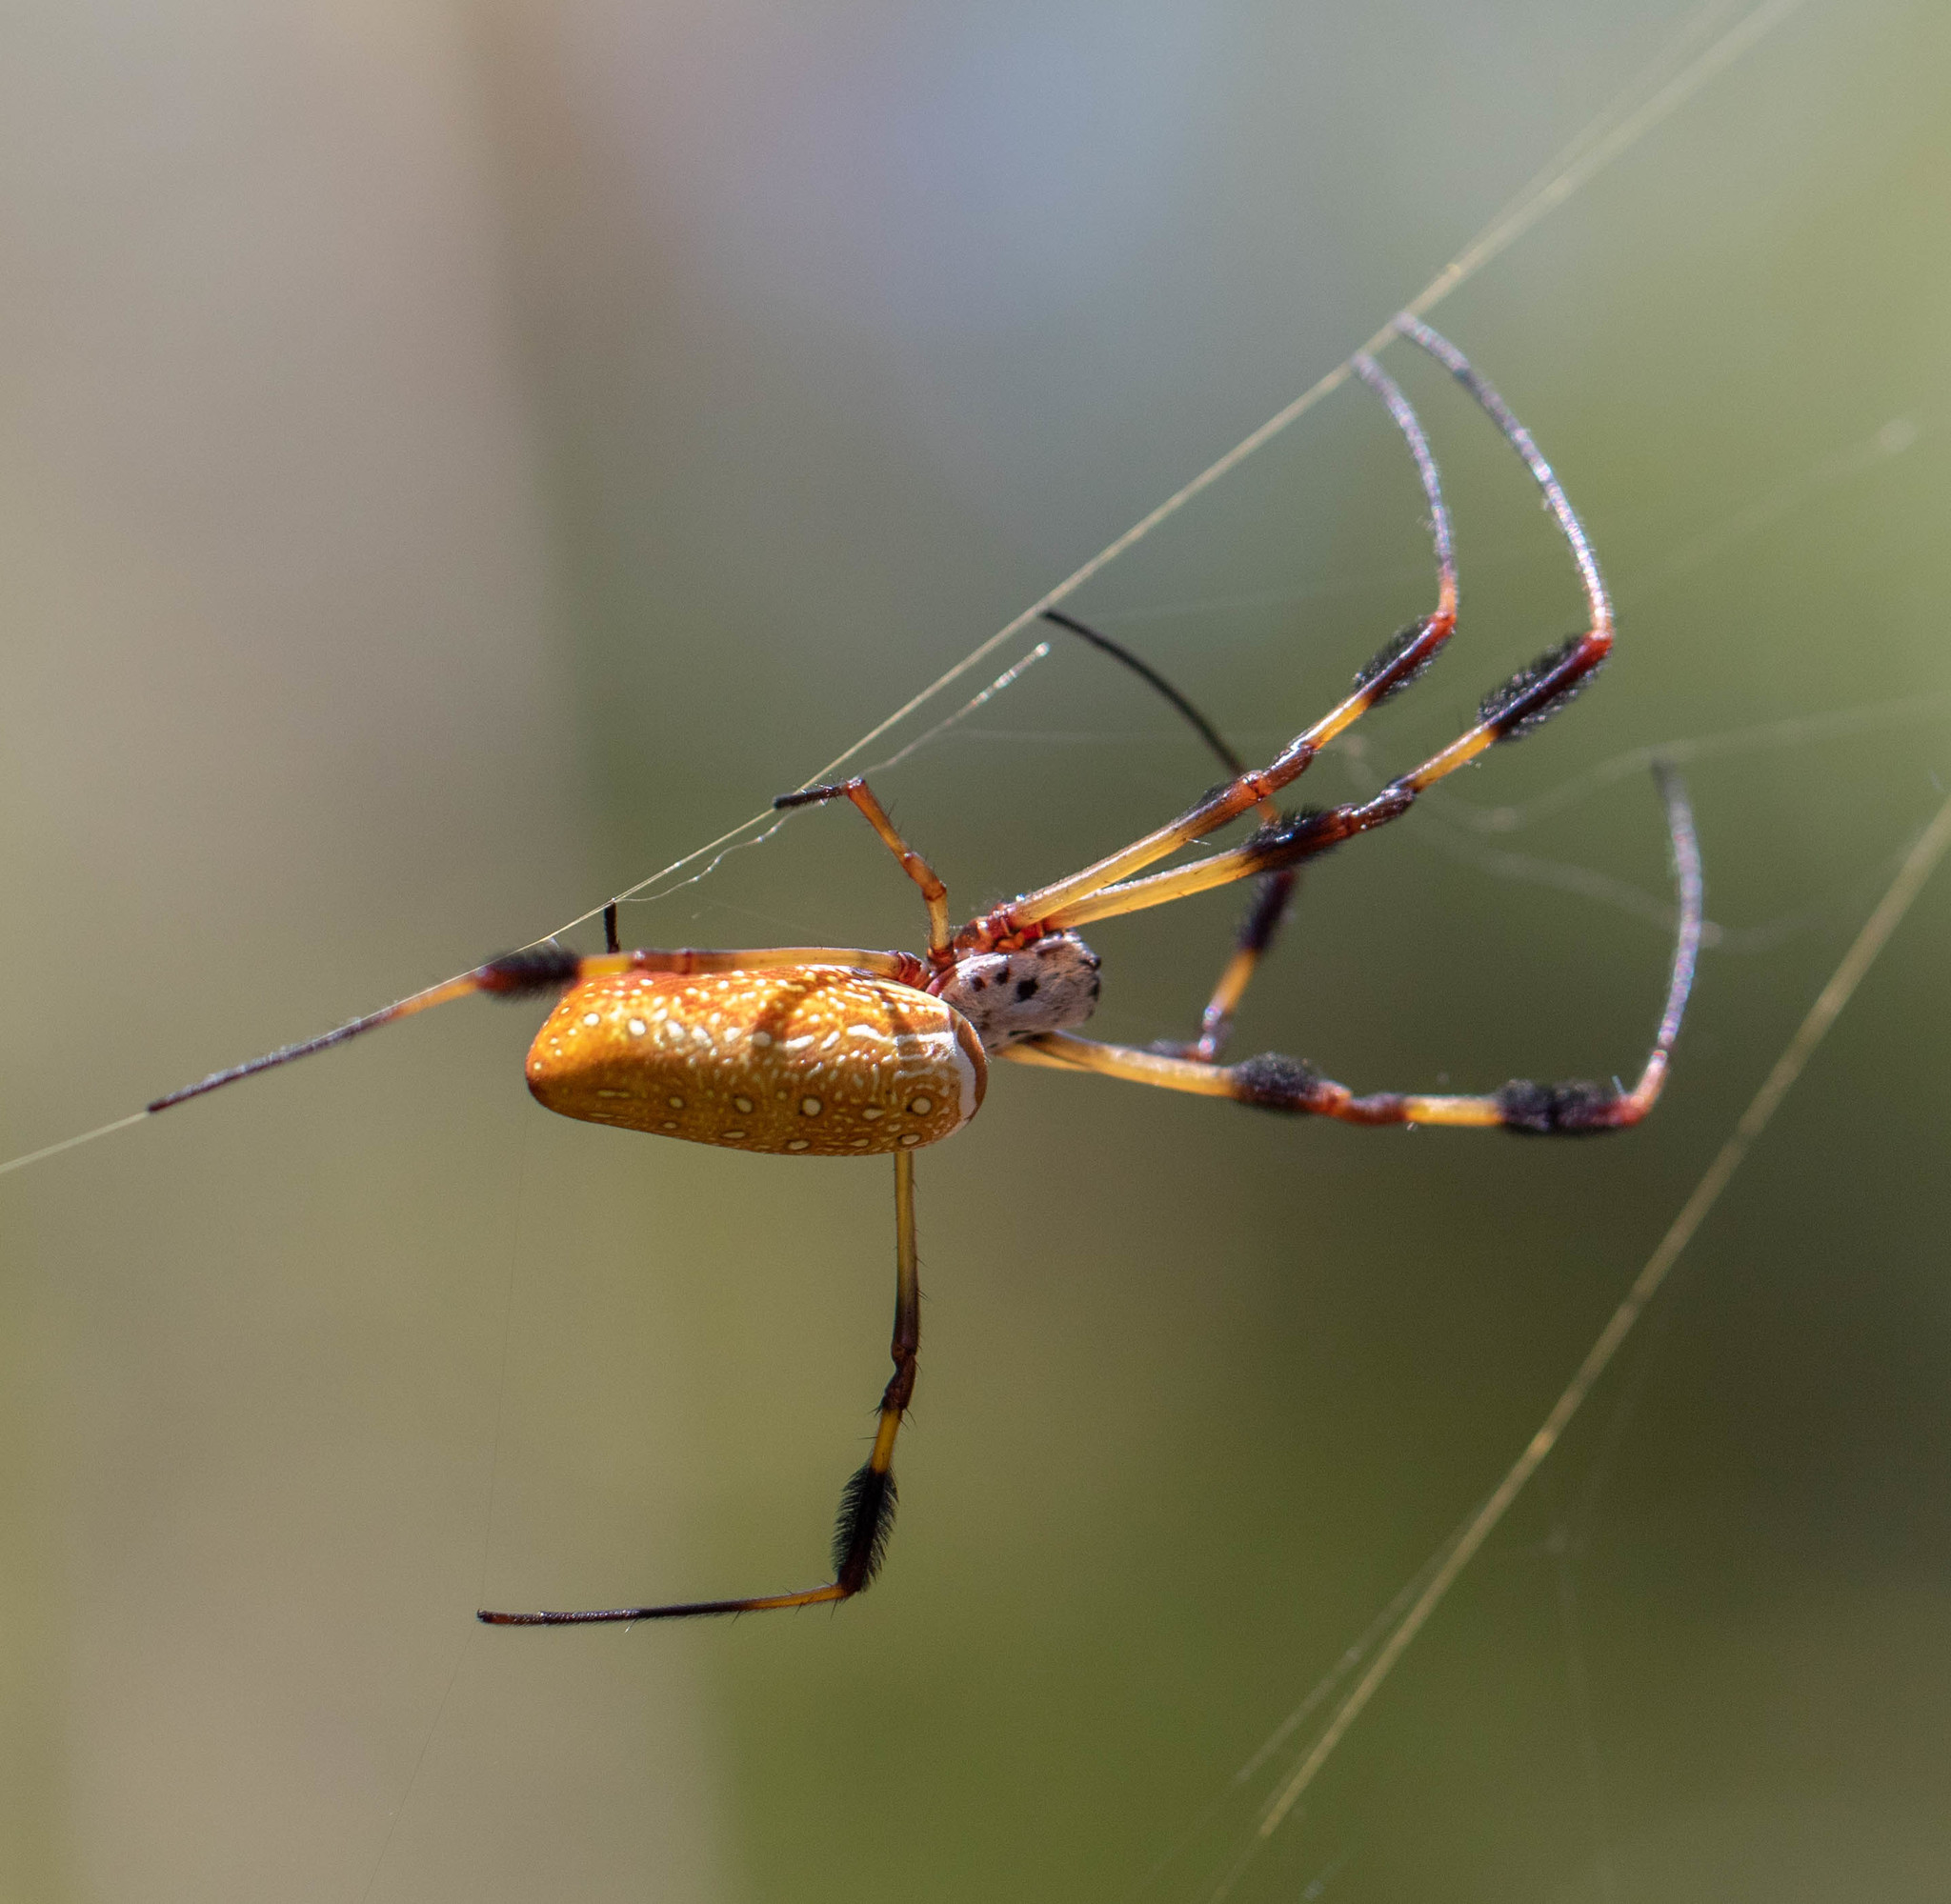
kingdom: Animalia
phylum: Arthropoda
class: Arachnida
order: Araneae
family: Araneidae
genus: Trichonephila
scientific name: Trichonephila clavipes
